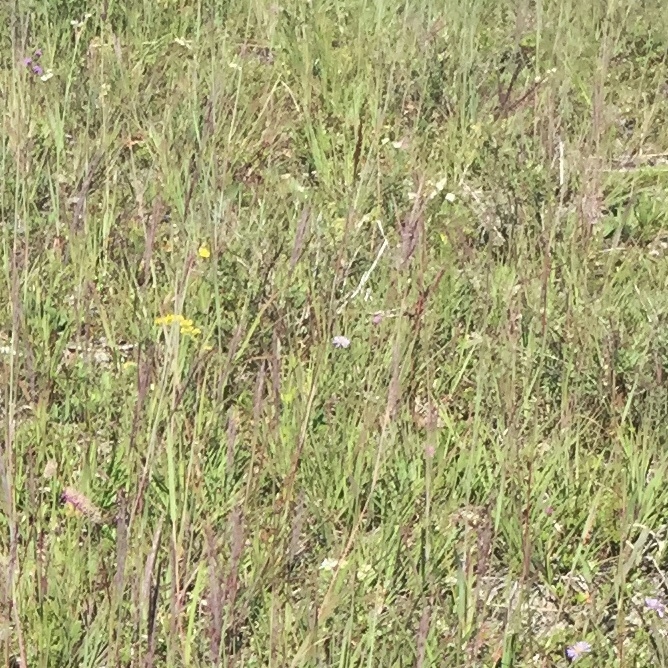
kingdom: Plantae
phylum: Tracheophyta
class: Liliopsida
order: Poales
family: Poaceae
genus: Andropogon
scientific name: Andropogon gerardi
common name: Big bluestem
